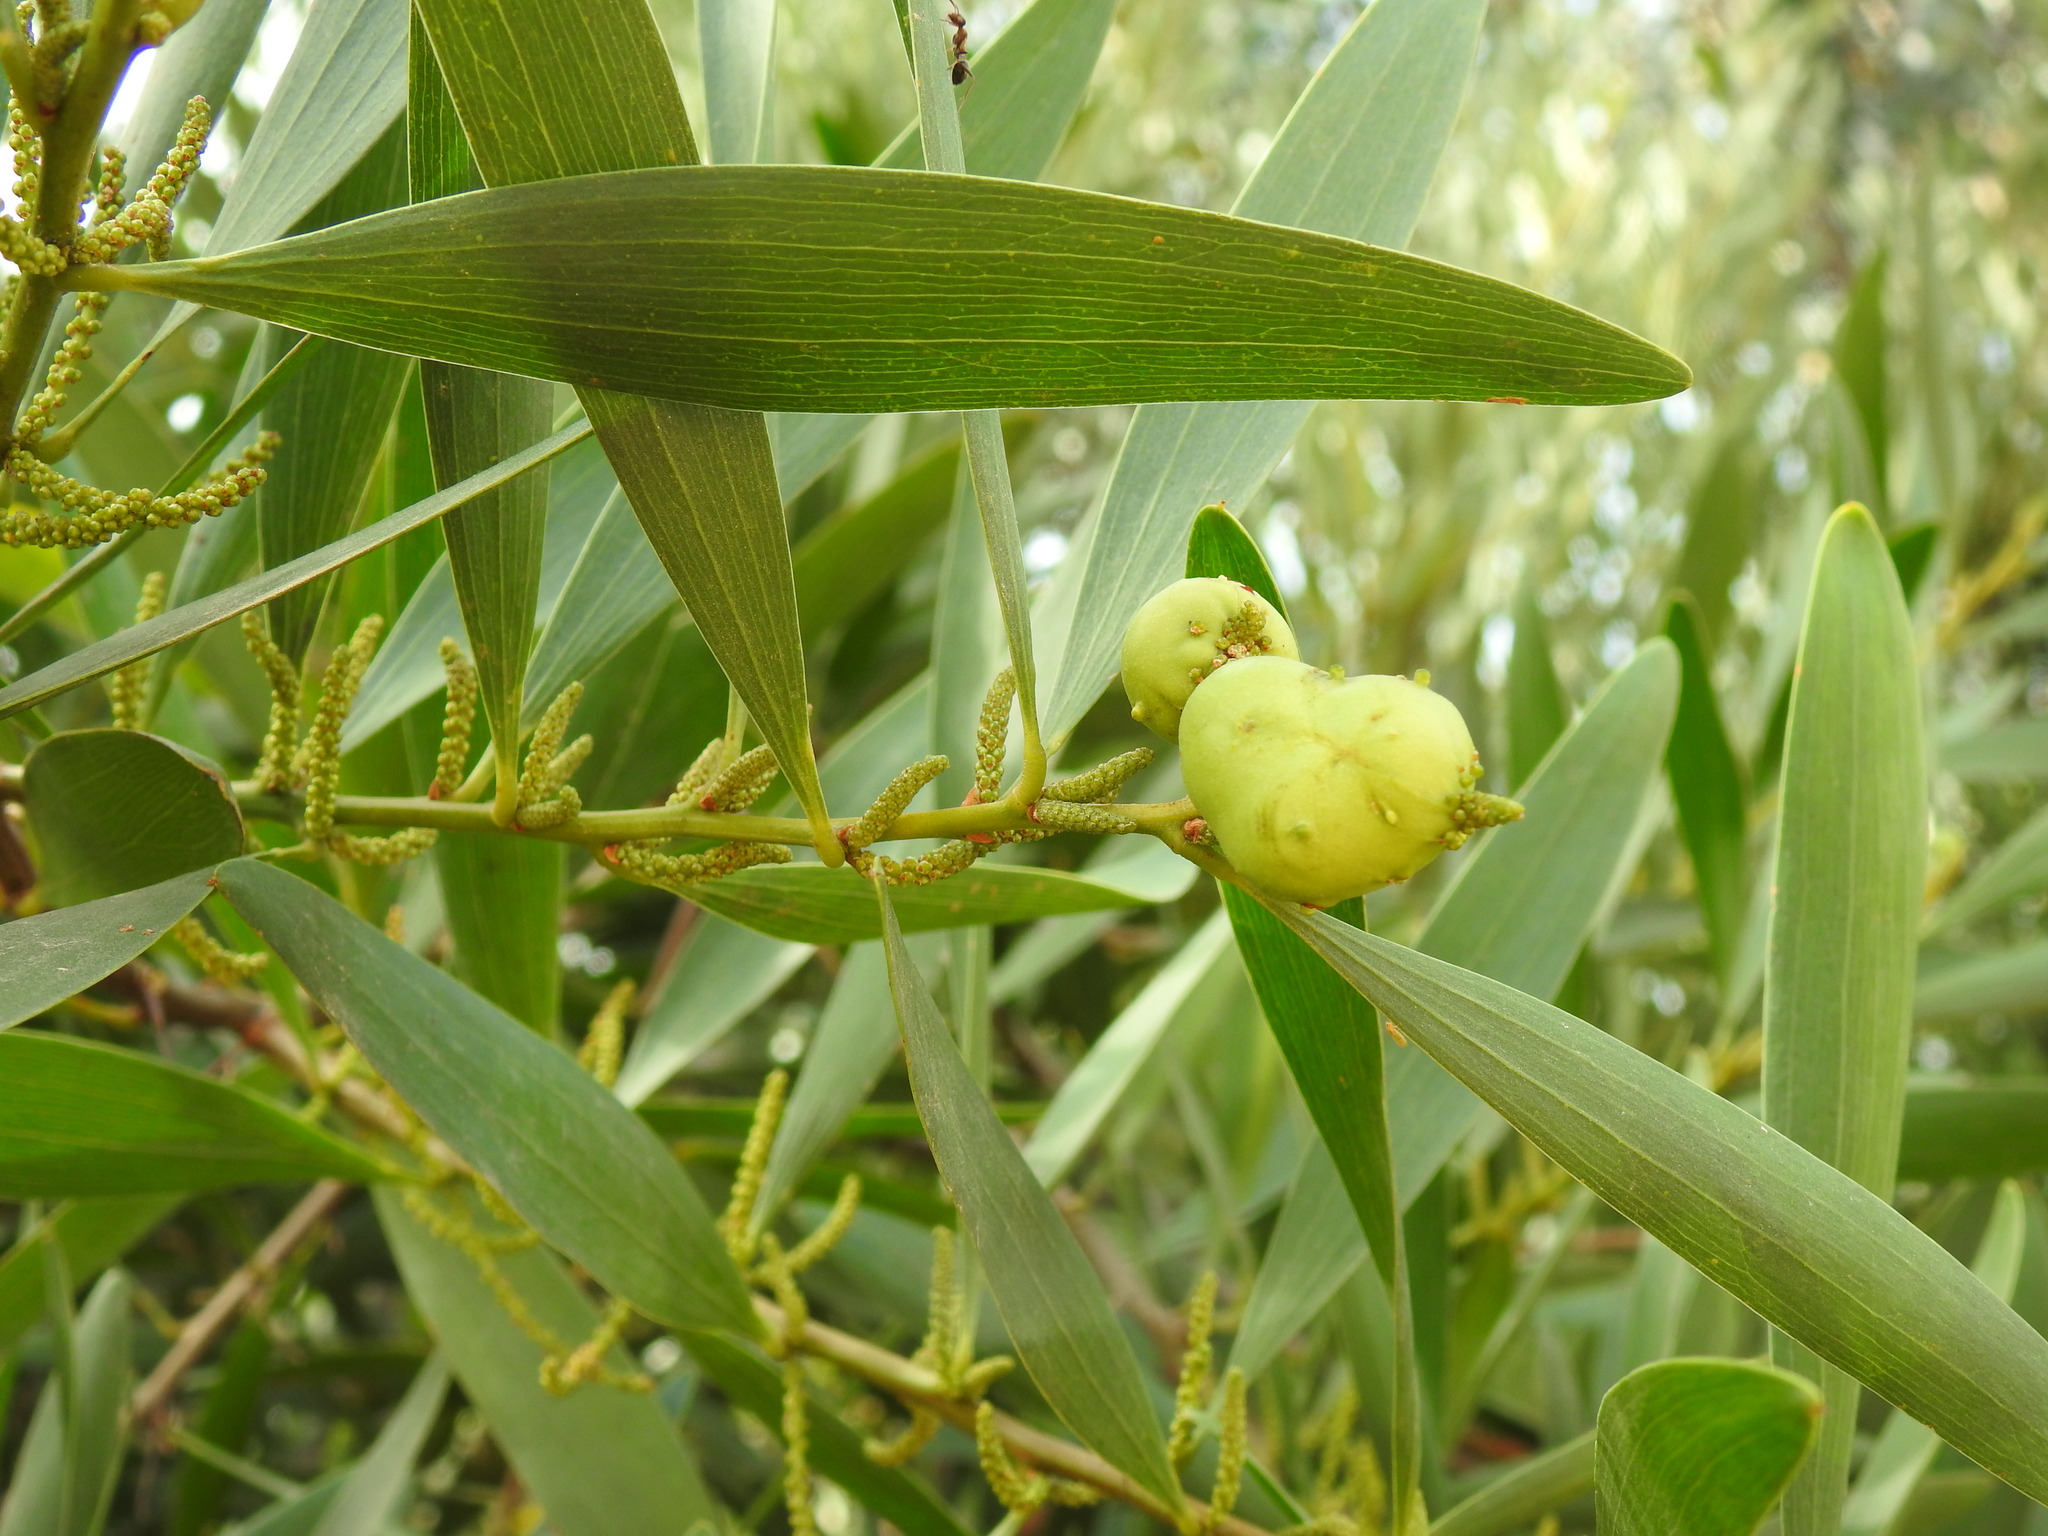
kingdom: Animalia
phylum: Arthropoda
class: Insecta
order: Hymenoptera
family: Pteromalidae
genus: Trichilogaster
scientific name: Trichilogaster acaciaelongifoliae
